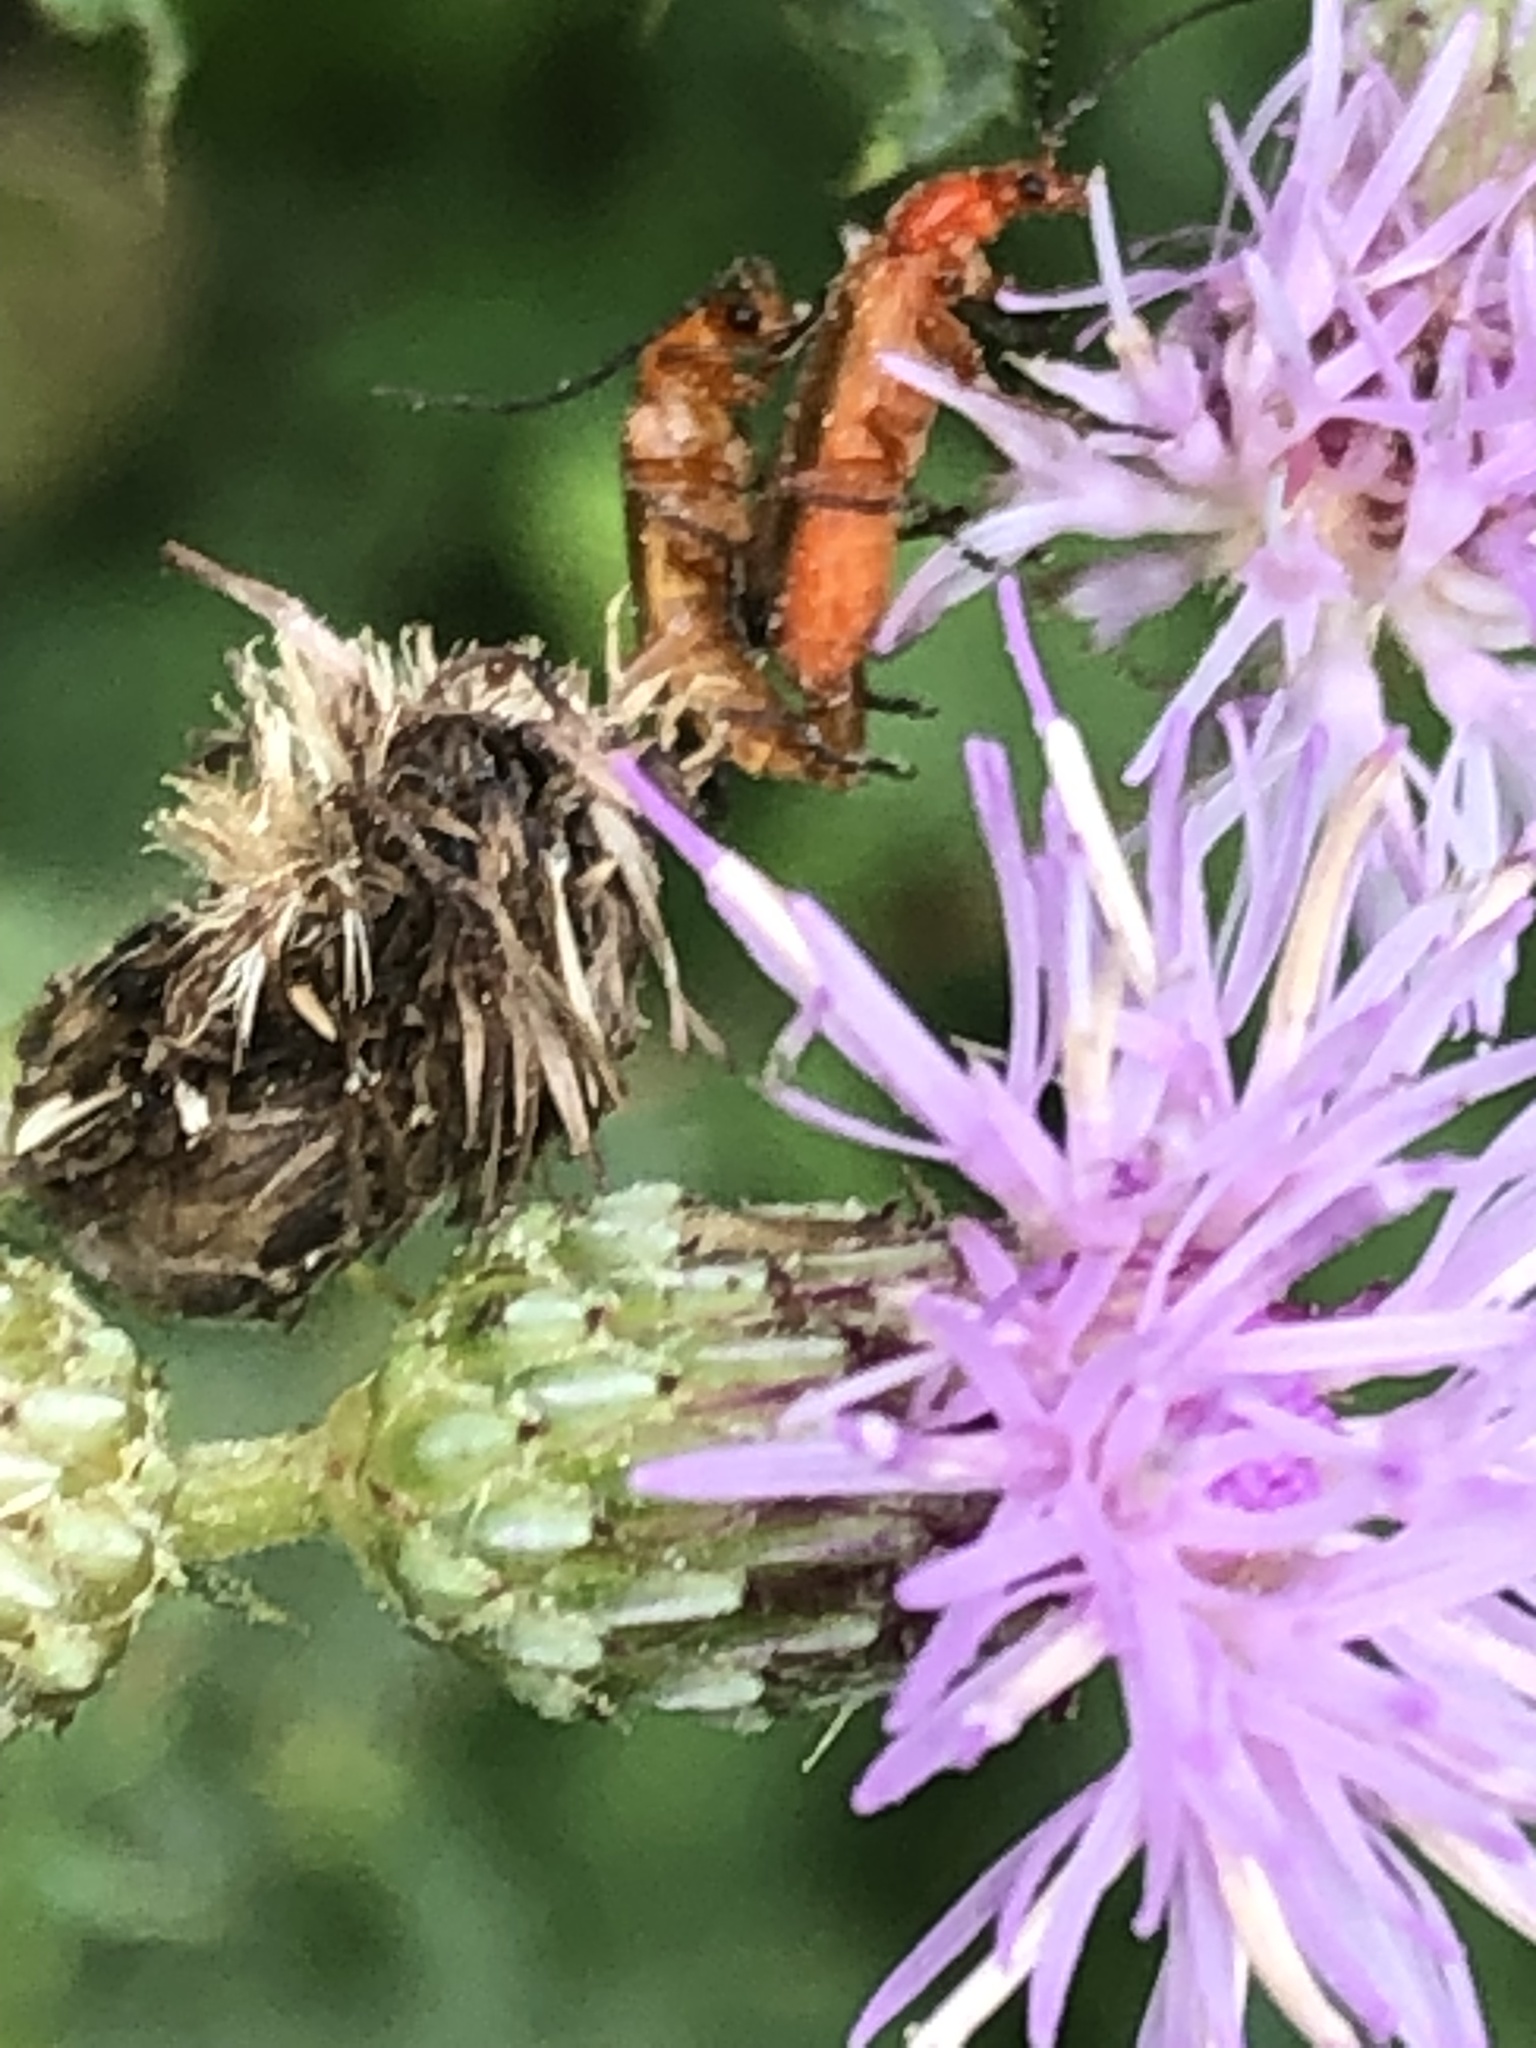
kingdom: Animalia
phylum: Arthropoda
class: Insecta
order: Coleoptera
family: Cantharidae
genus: Rhagonycha
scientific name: Rhagonycha fulva
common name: Common red soldier beetle
